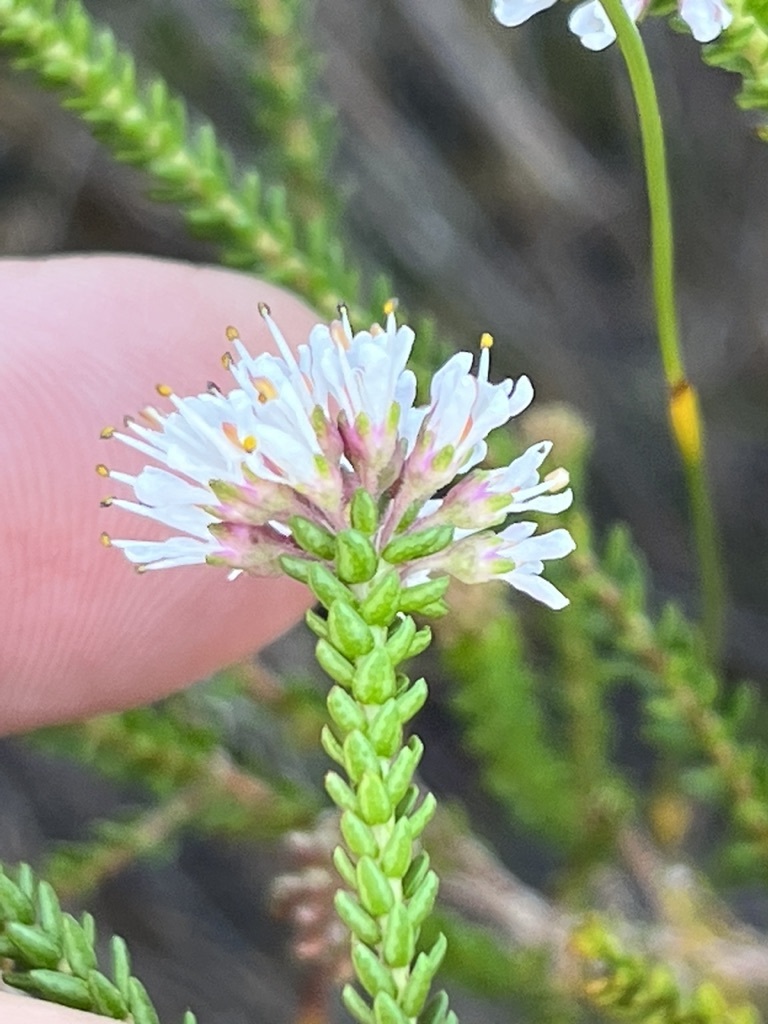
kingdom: Plantae
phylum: Tracheophyta
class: Magnoliopsida
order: Sapindales
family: Rutaceae
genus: Agathosma
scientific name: Agathosma capensis
